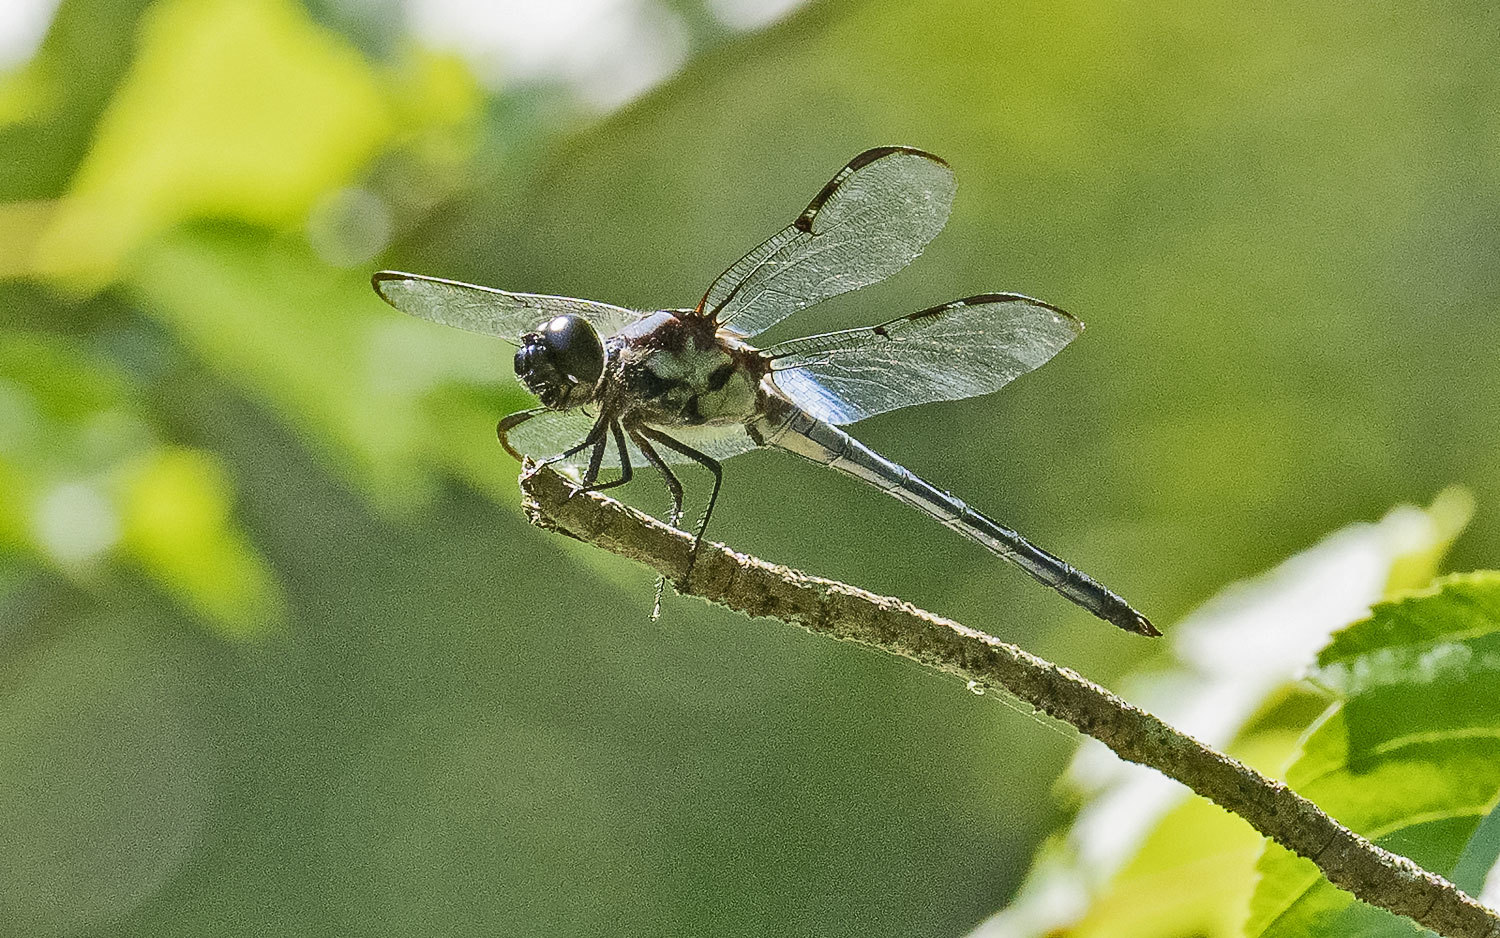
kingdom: Animalia
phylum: Arthropoda
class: Insecta
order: Odonata
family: Libellulidae
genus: Libellula
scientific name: Libellula axilena
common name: Bar-winged skimmer
